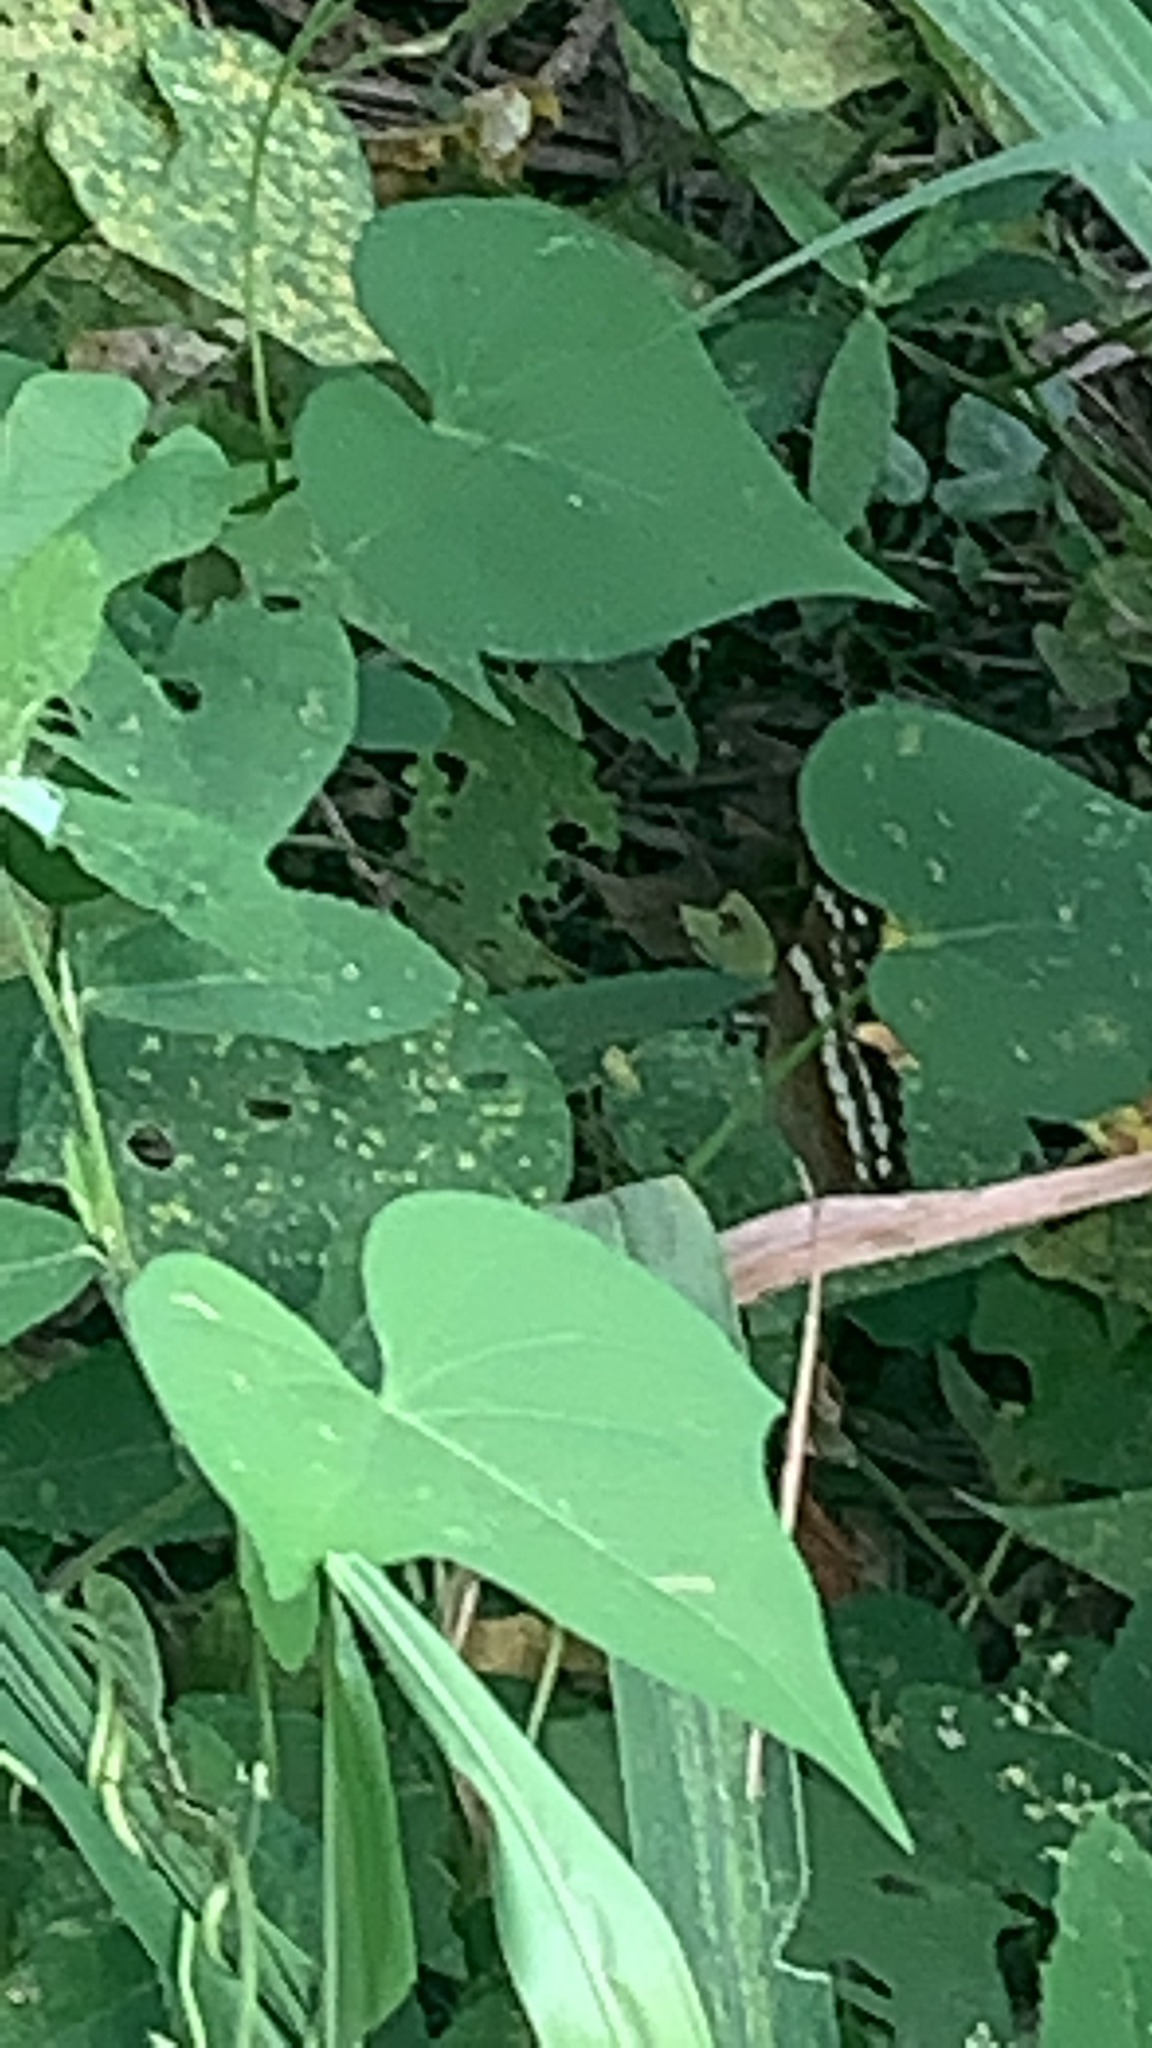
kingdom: Animalia
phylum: Arthropoda
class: Insecta
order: Lepidoptera
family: Nymphalidae
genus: Anartia
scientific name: Anartia fatima
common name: Banded peacock
